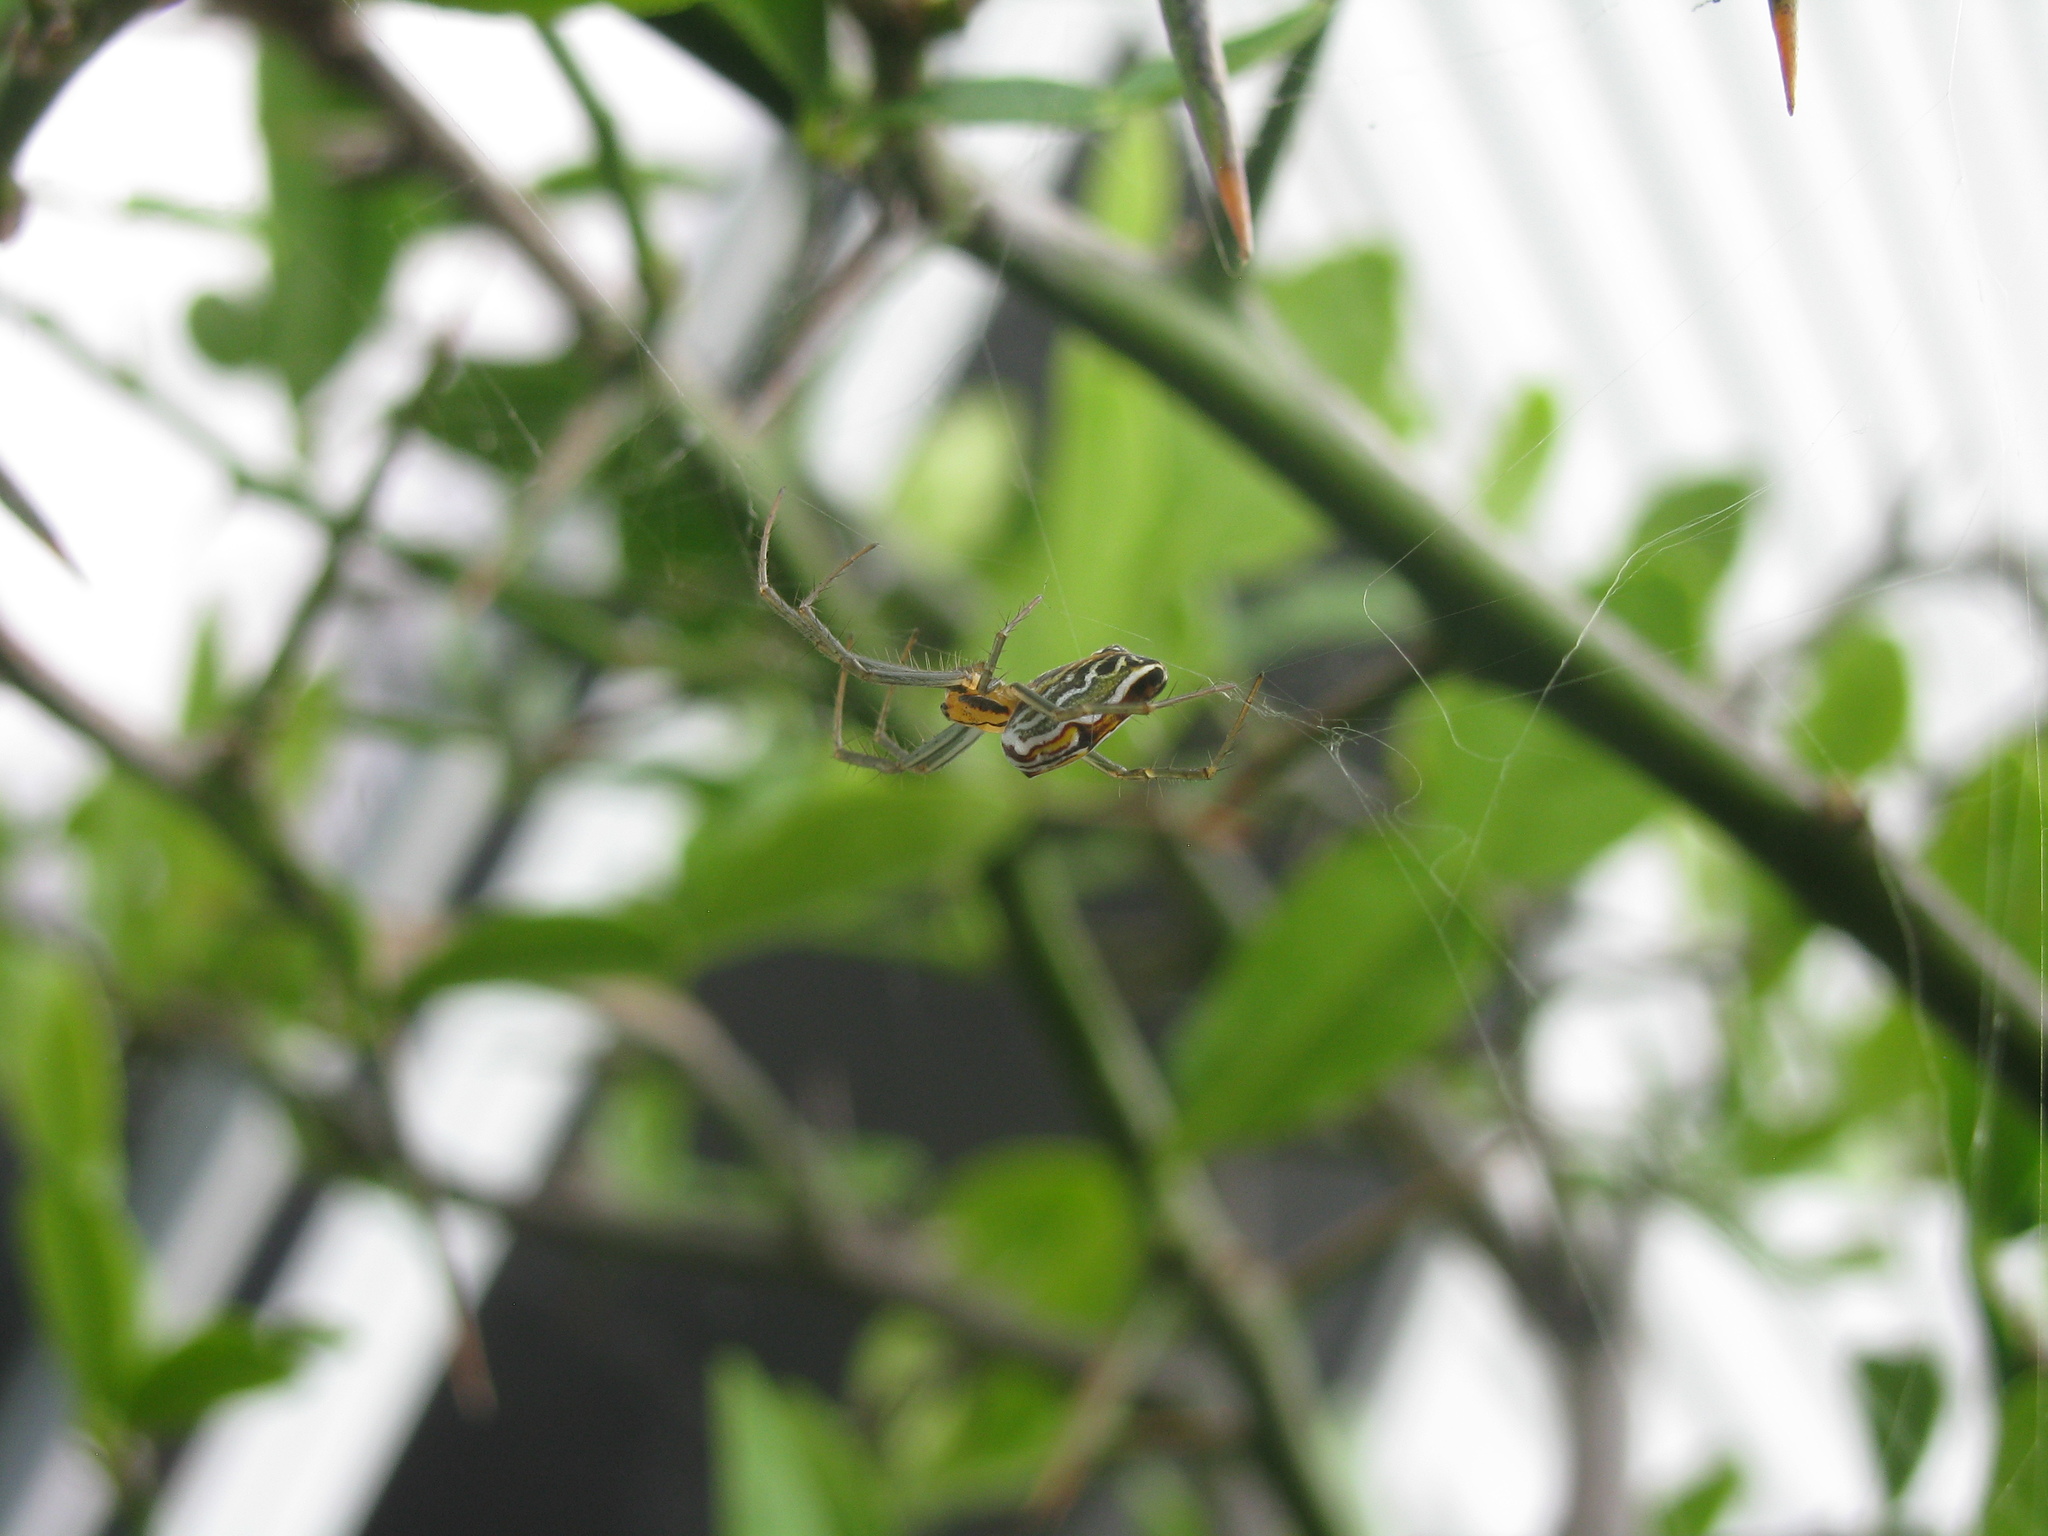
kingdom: Animalia
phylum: Arthropoda
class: Arachnida
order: Araneae
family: Araneidae
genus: Mecynogea
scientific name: Mecynogea lemniscata
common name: Orb weavers
